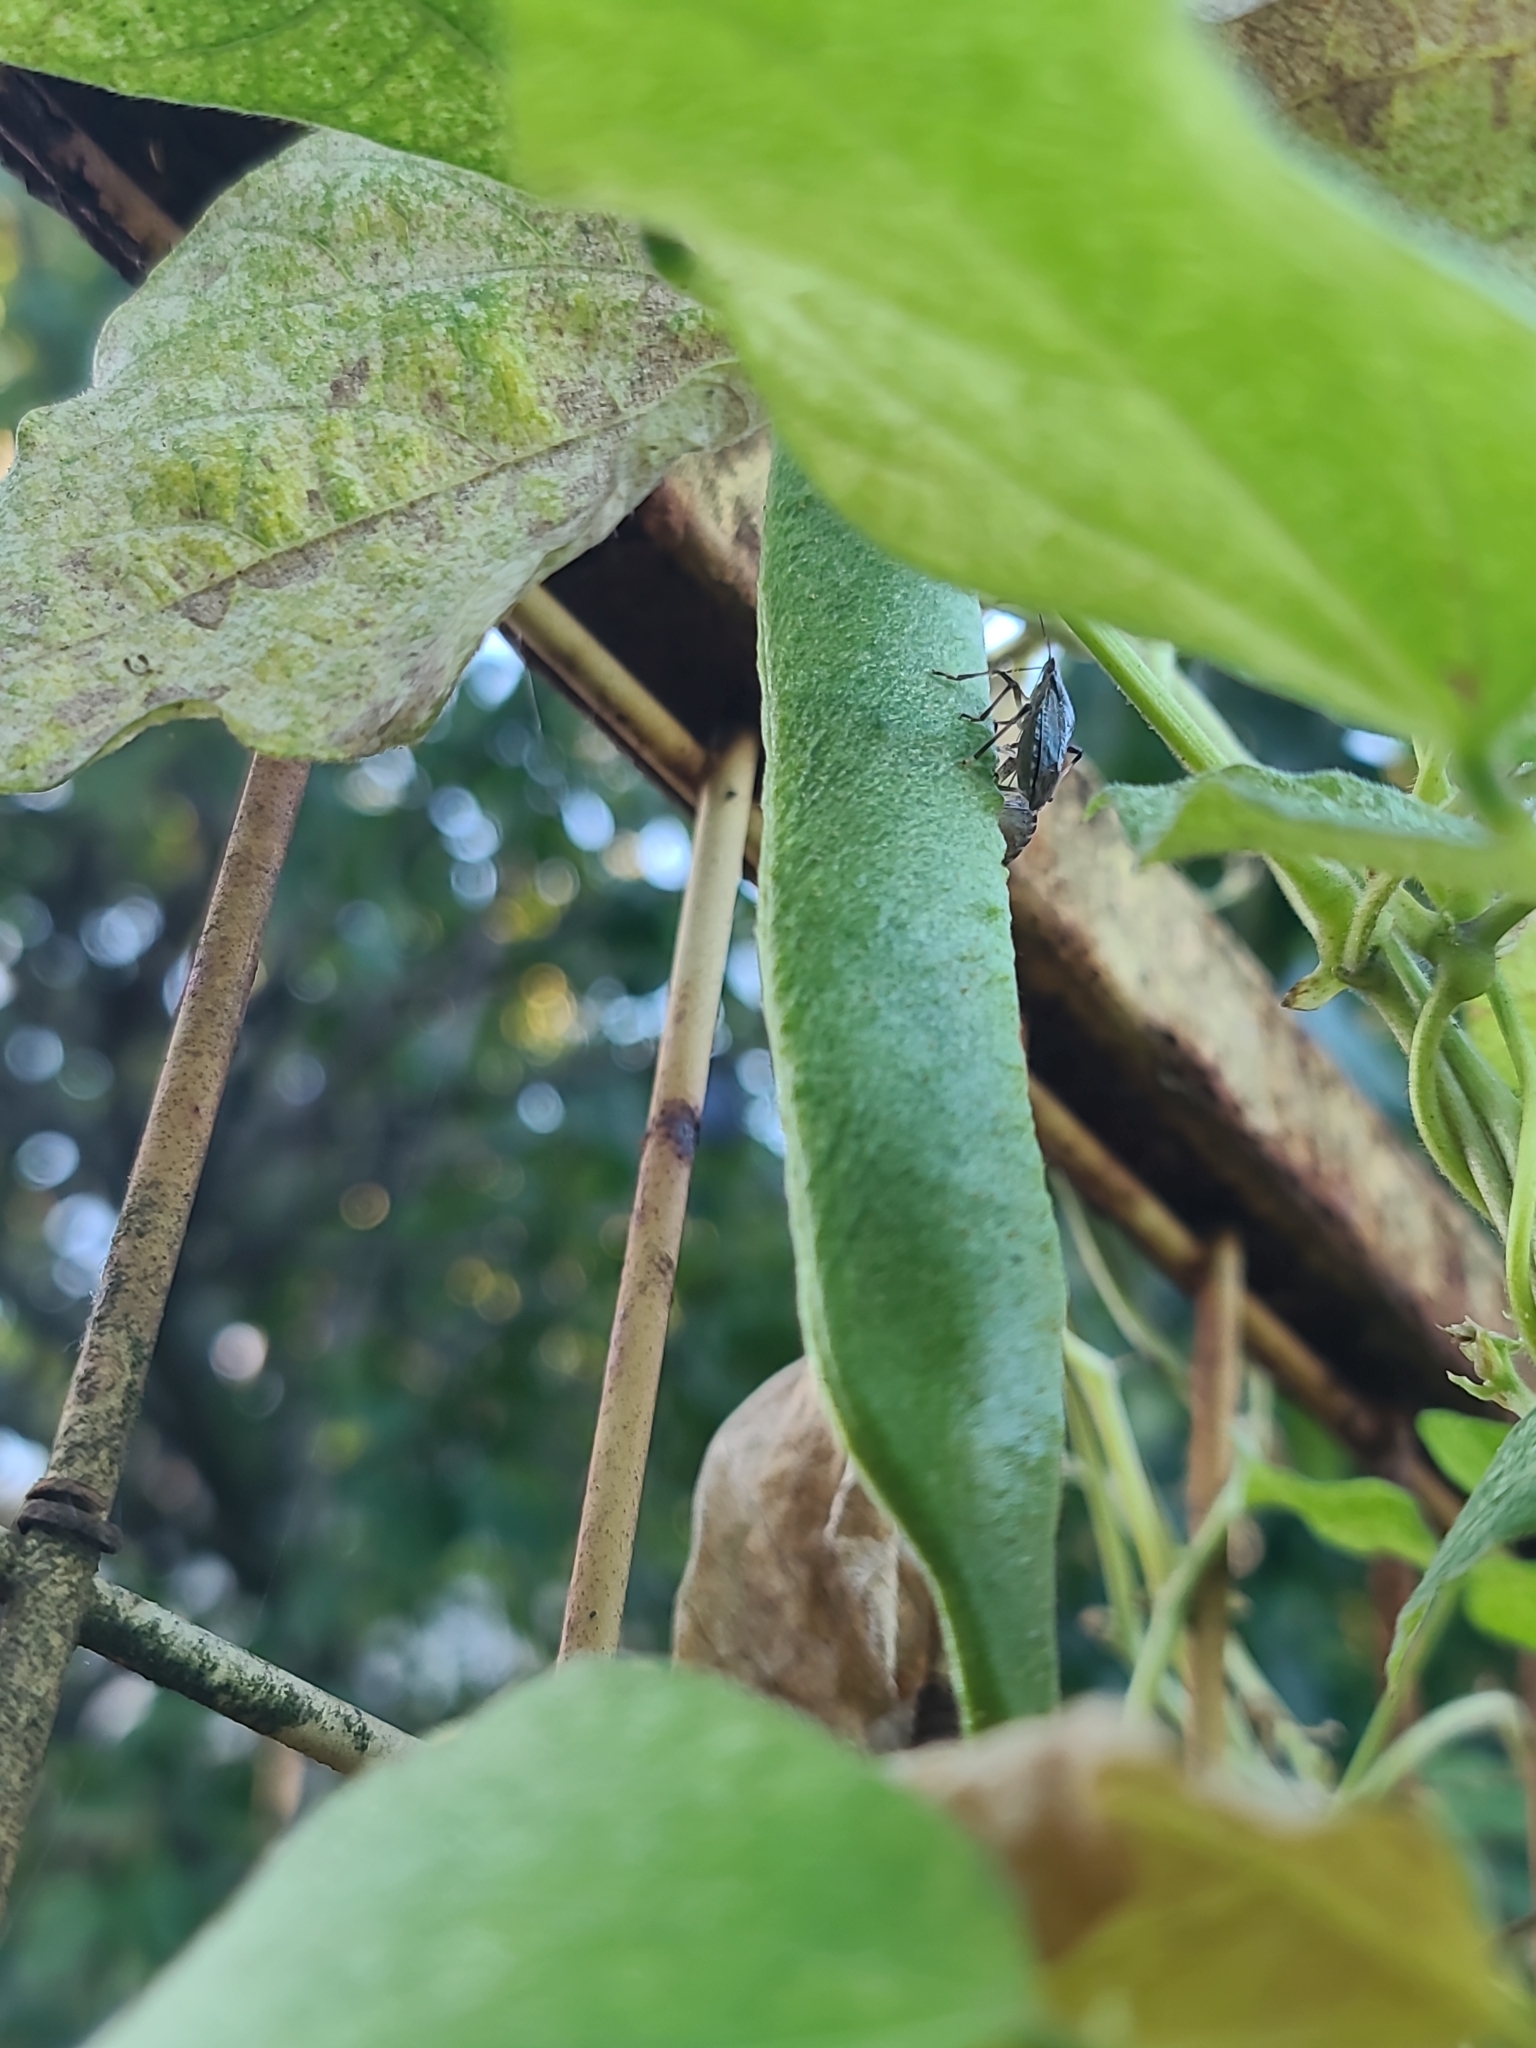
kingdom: Animalia
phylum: Arthropoda
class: Insecta
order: Hemiptera
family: Pentatomidae
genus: Halyomorpha
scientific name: Halyomorpha halys
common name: Brown marmorated stink bug
